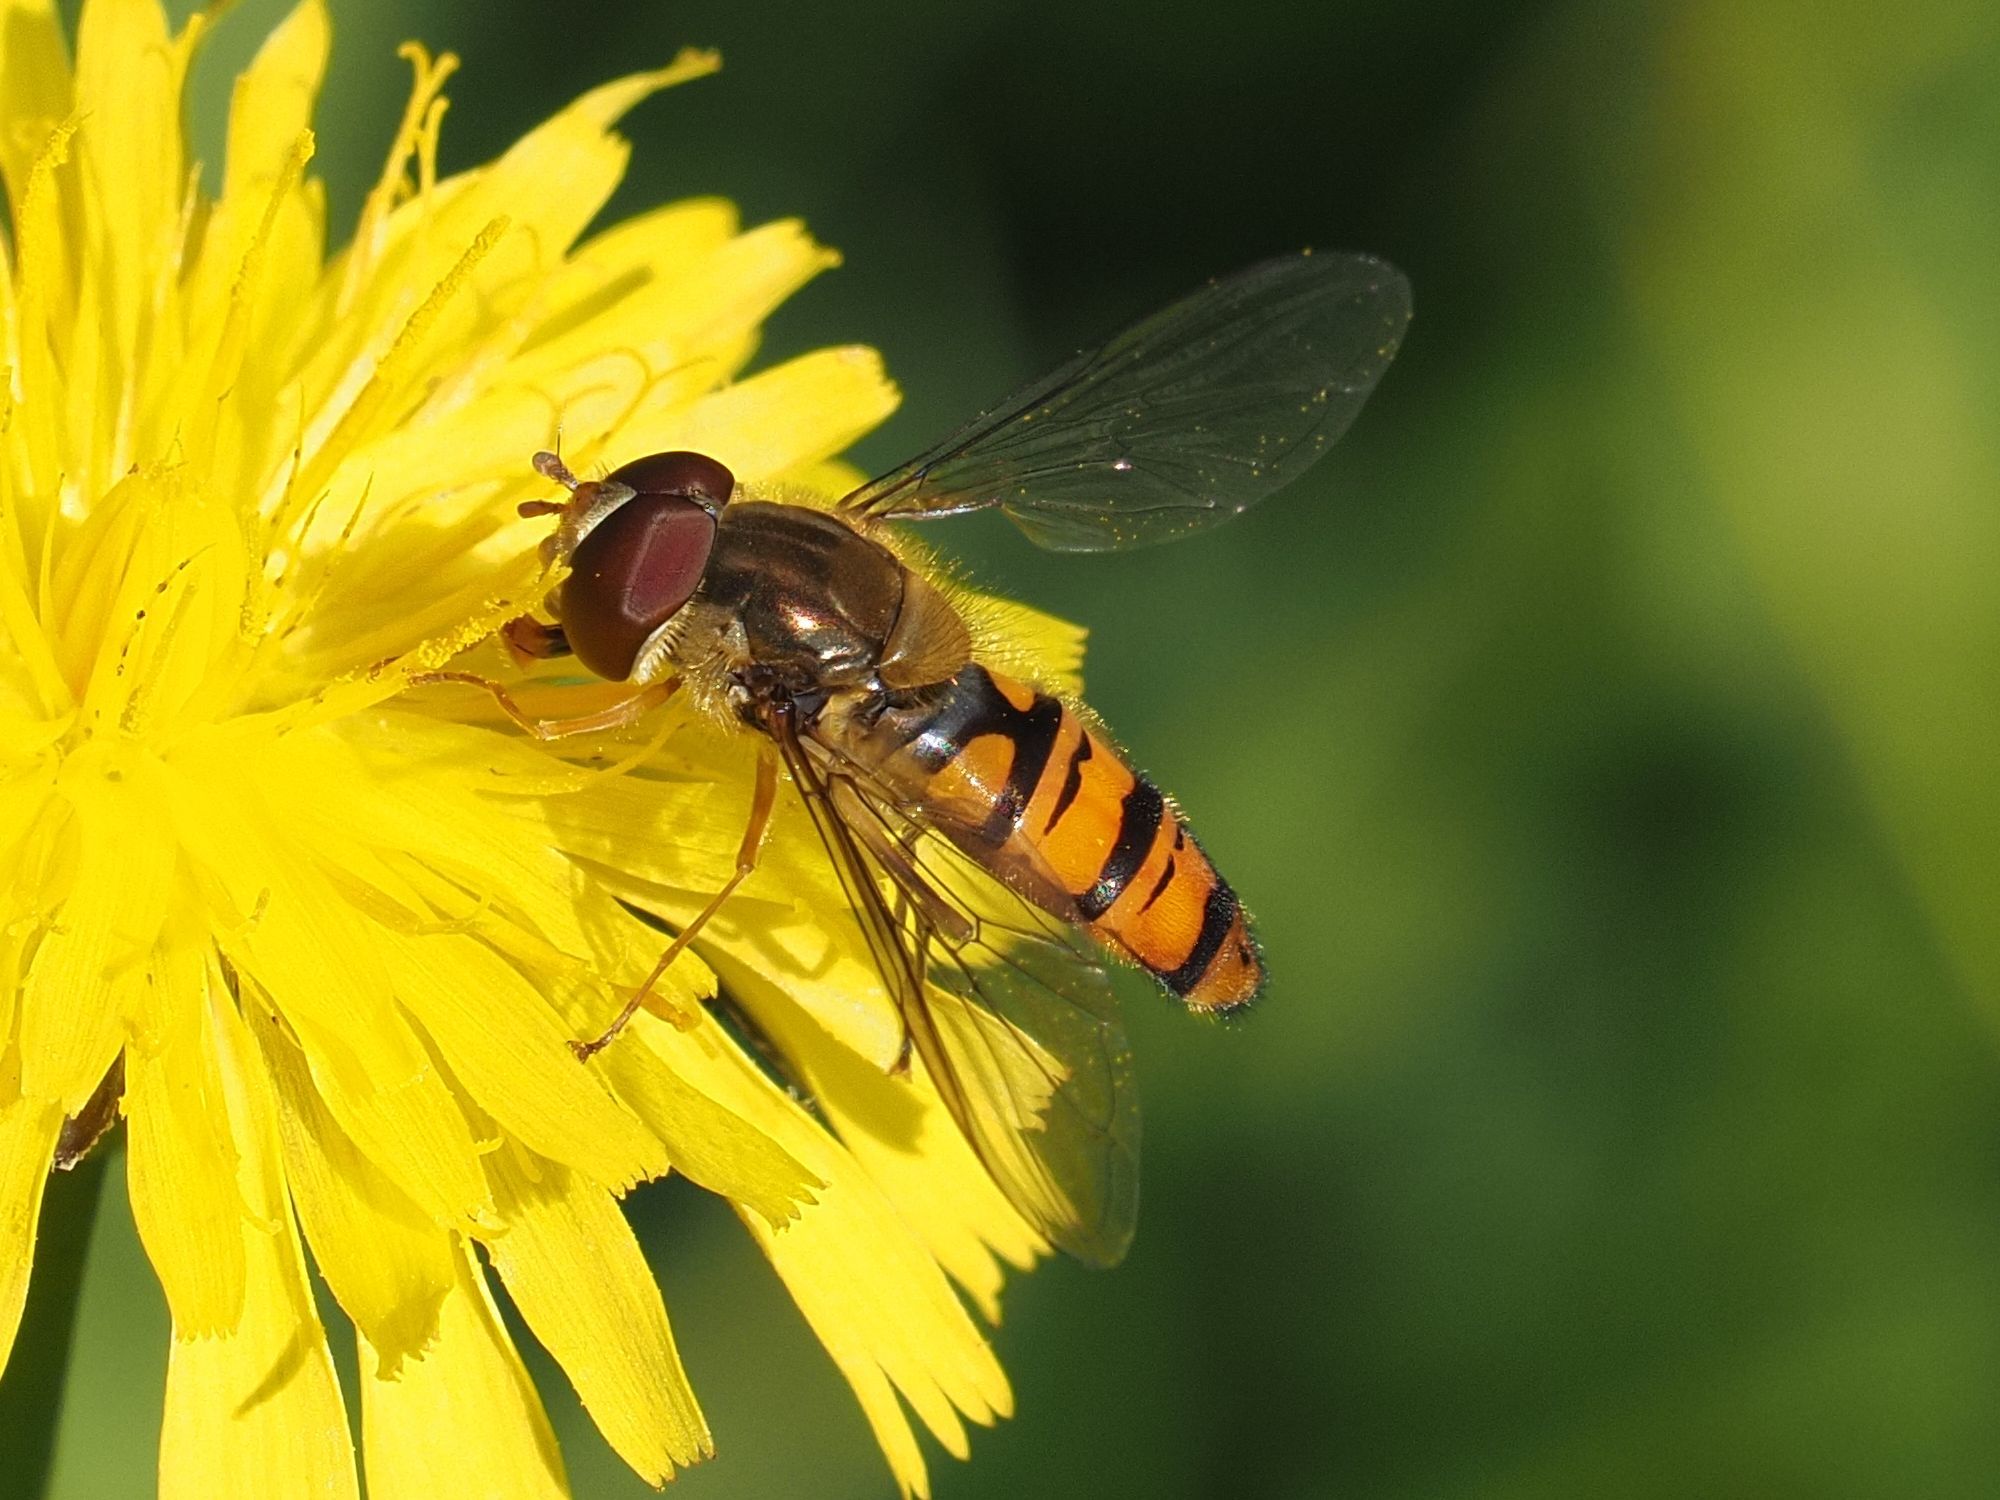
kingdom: Animalia
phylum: Arthropoda
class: Insecta
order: Diptera
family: Syrphidae
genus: Episyrphus
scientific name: Episyrphus balteatus
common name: Marmalade hoverfly
